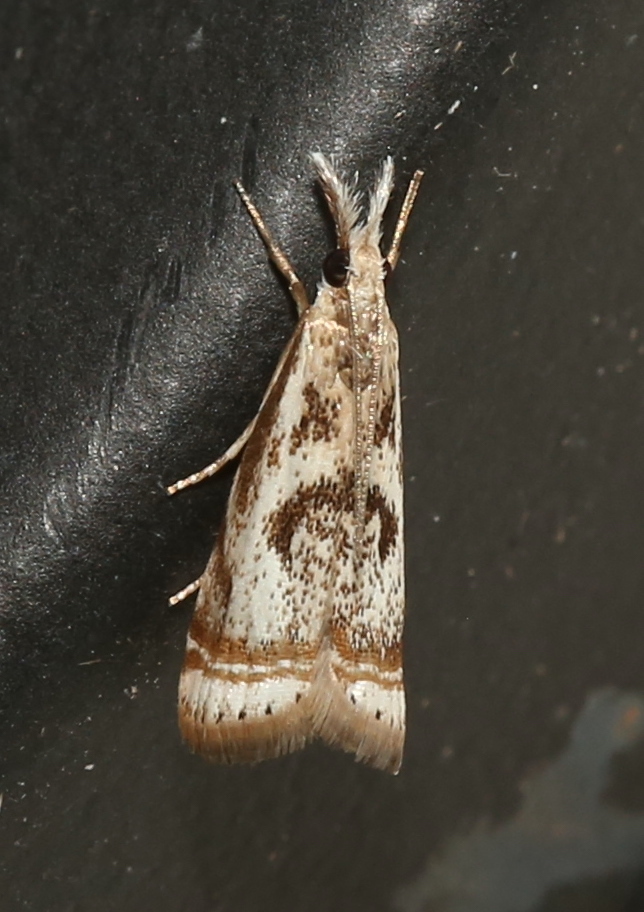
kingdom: Animalia
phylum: Arthropoda
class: Insecta
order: Lepidoptera
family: Crambidae
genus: Microcrambus
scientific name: Microcrambus elegans
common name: Elegant grass-veneer
